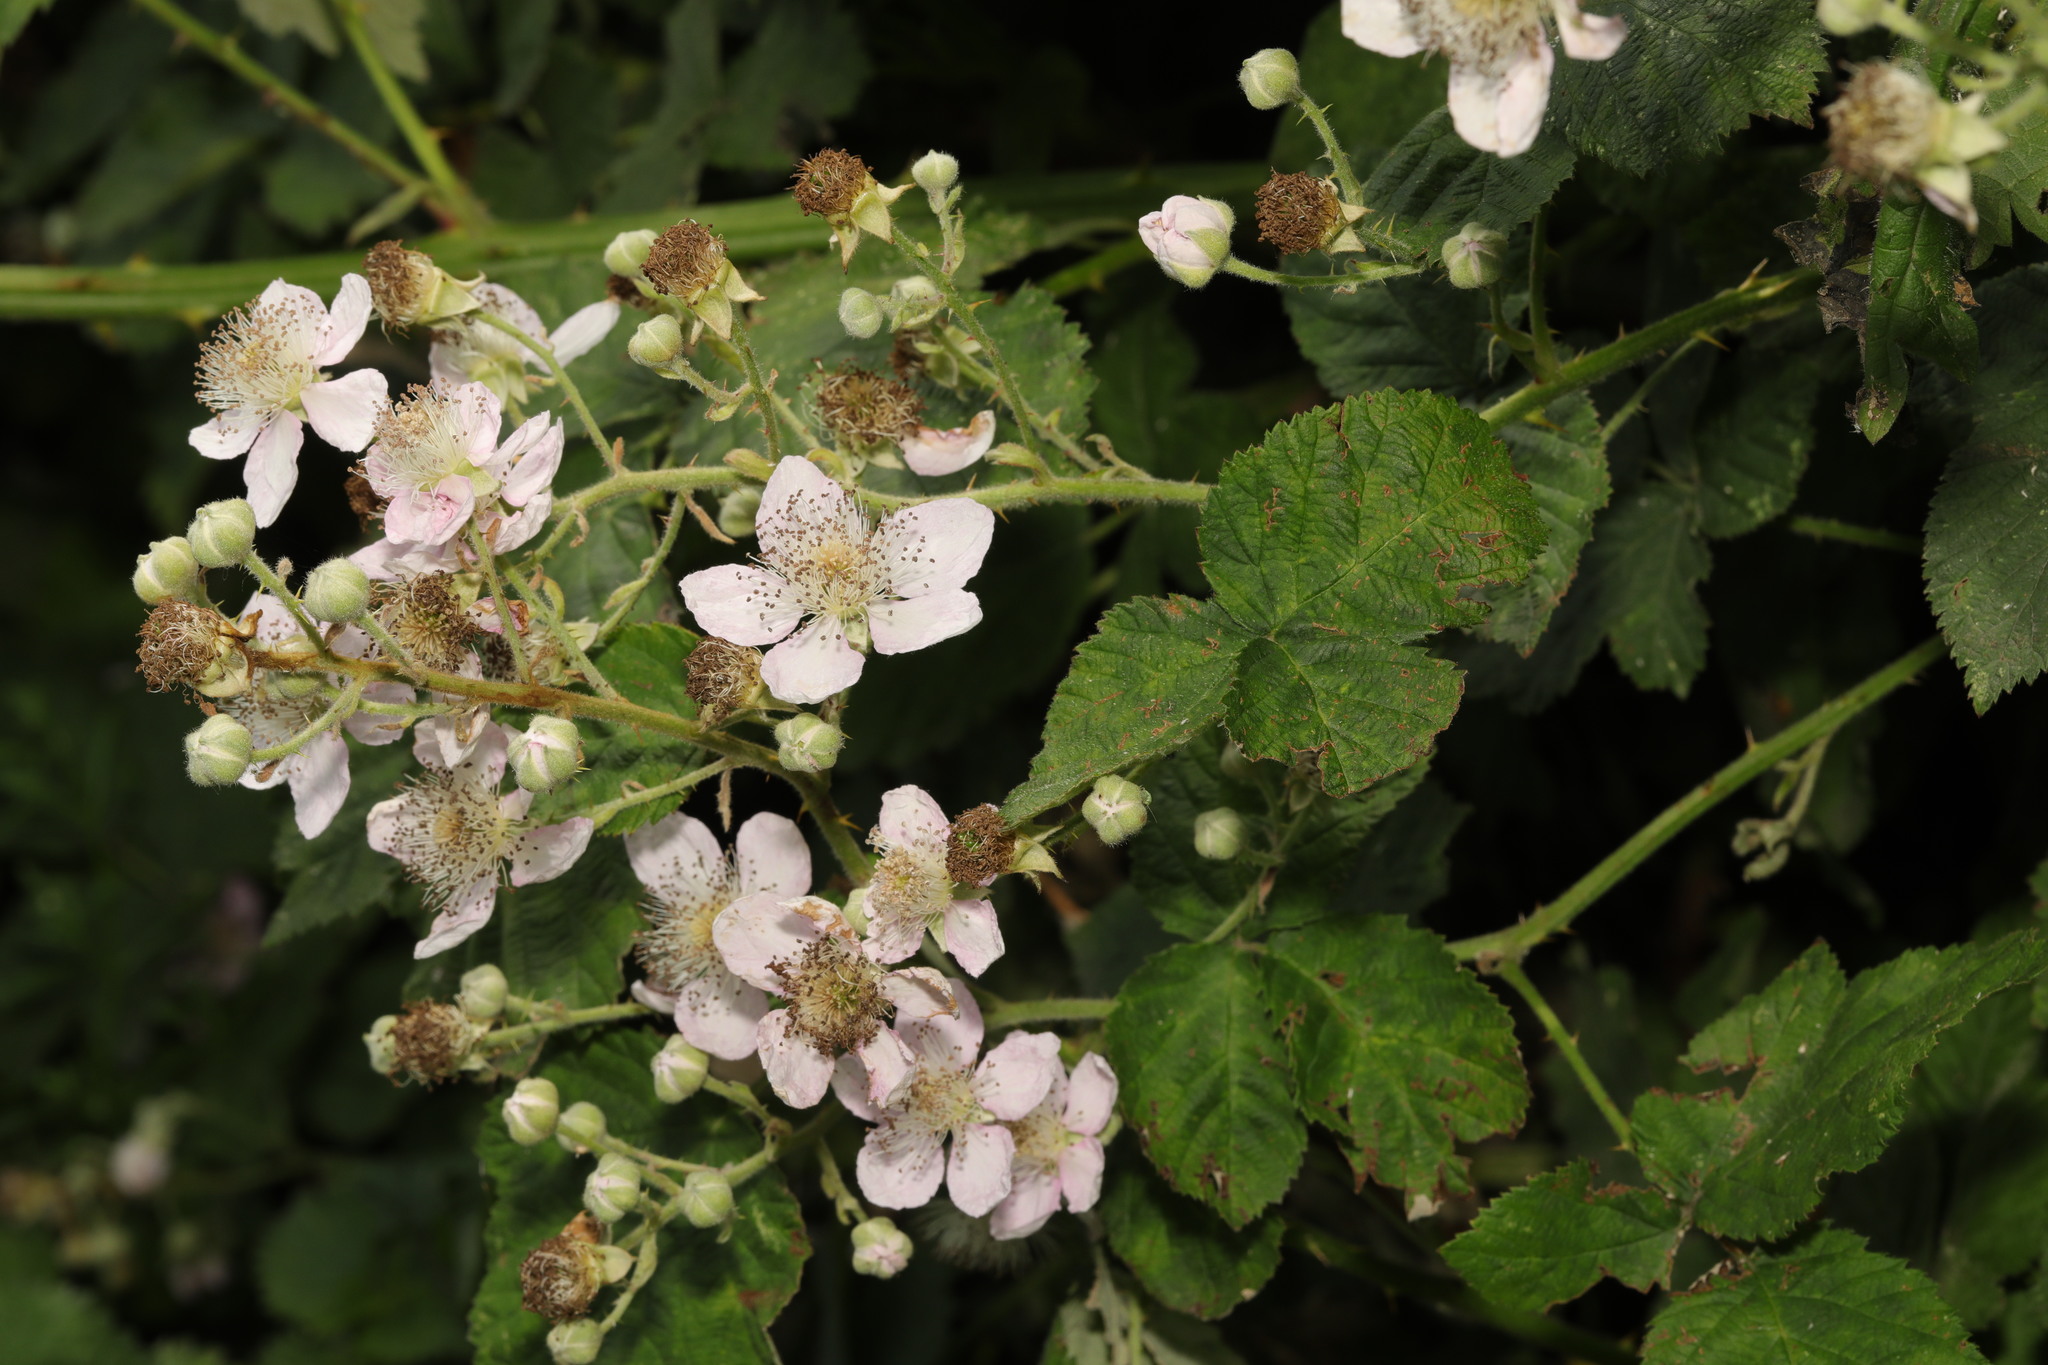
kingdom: Plantae
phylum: Tracheophyta
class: Magnoliopsida
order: Rosales
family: Rosaceae
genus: Rubus
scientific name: Rubus armeniacus
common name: Himalayan blackberry
